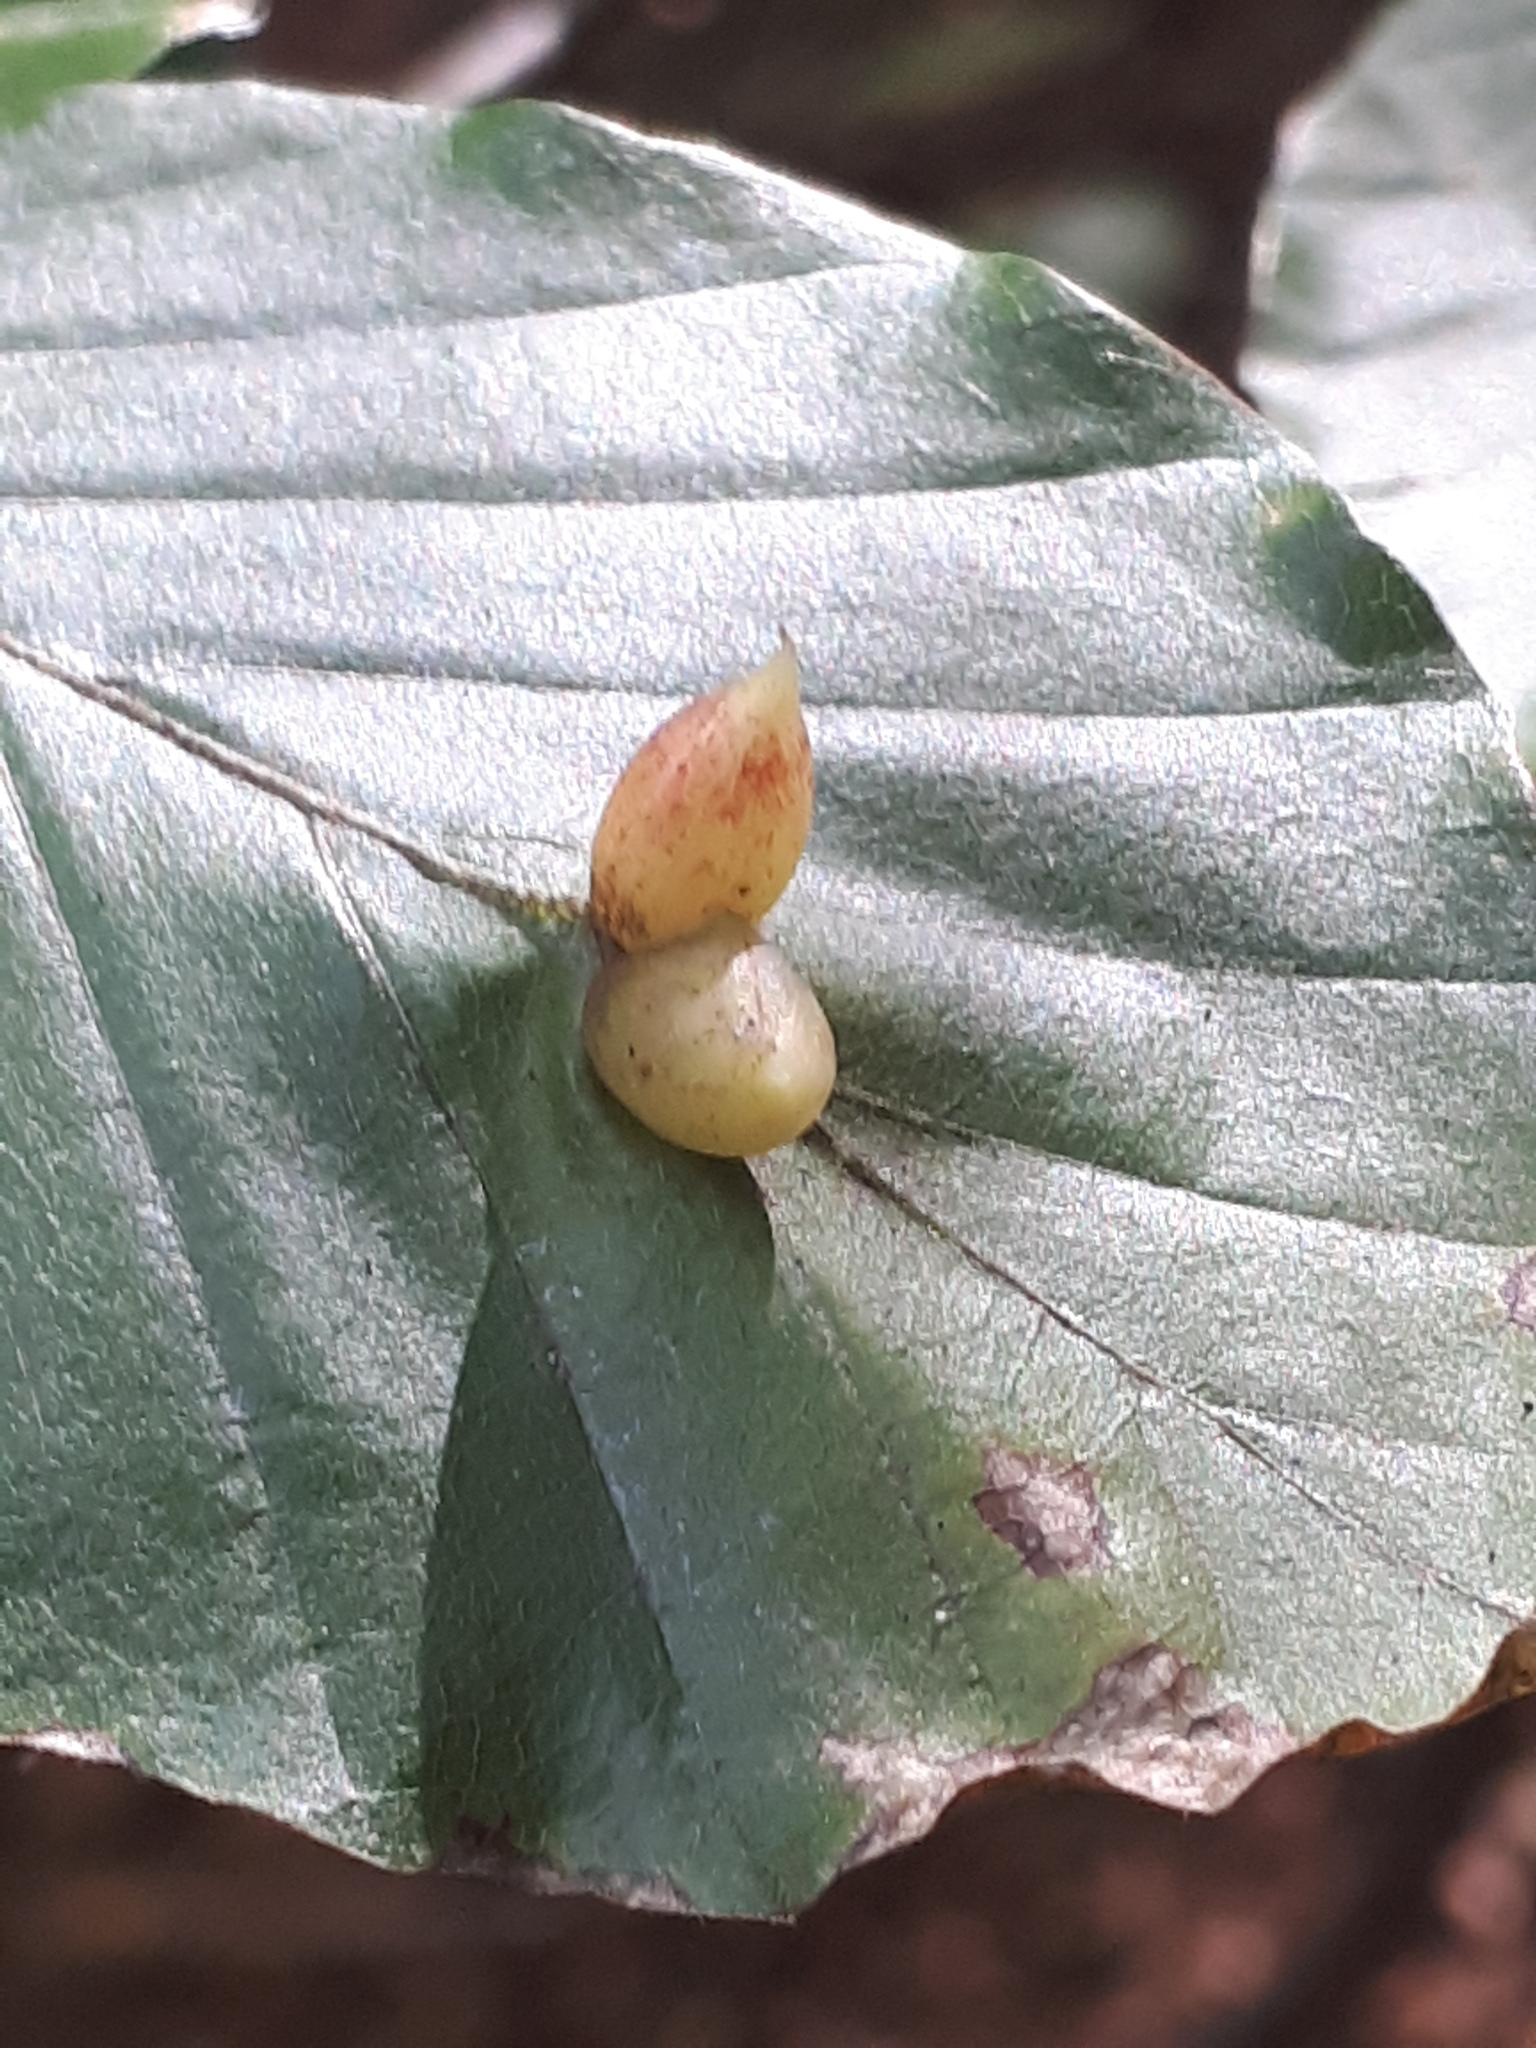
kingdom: Animalia
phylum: Arthropoda
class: Insecta
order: Diptera
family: Cecidomyiidae
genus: Mikiola
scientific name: Mikiola fagi
